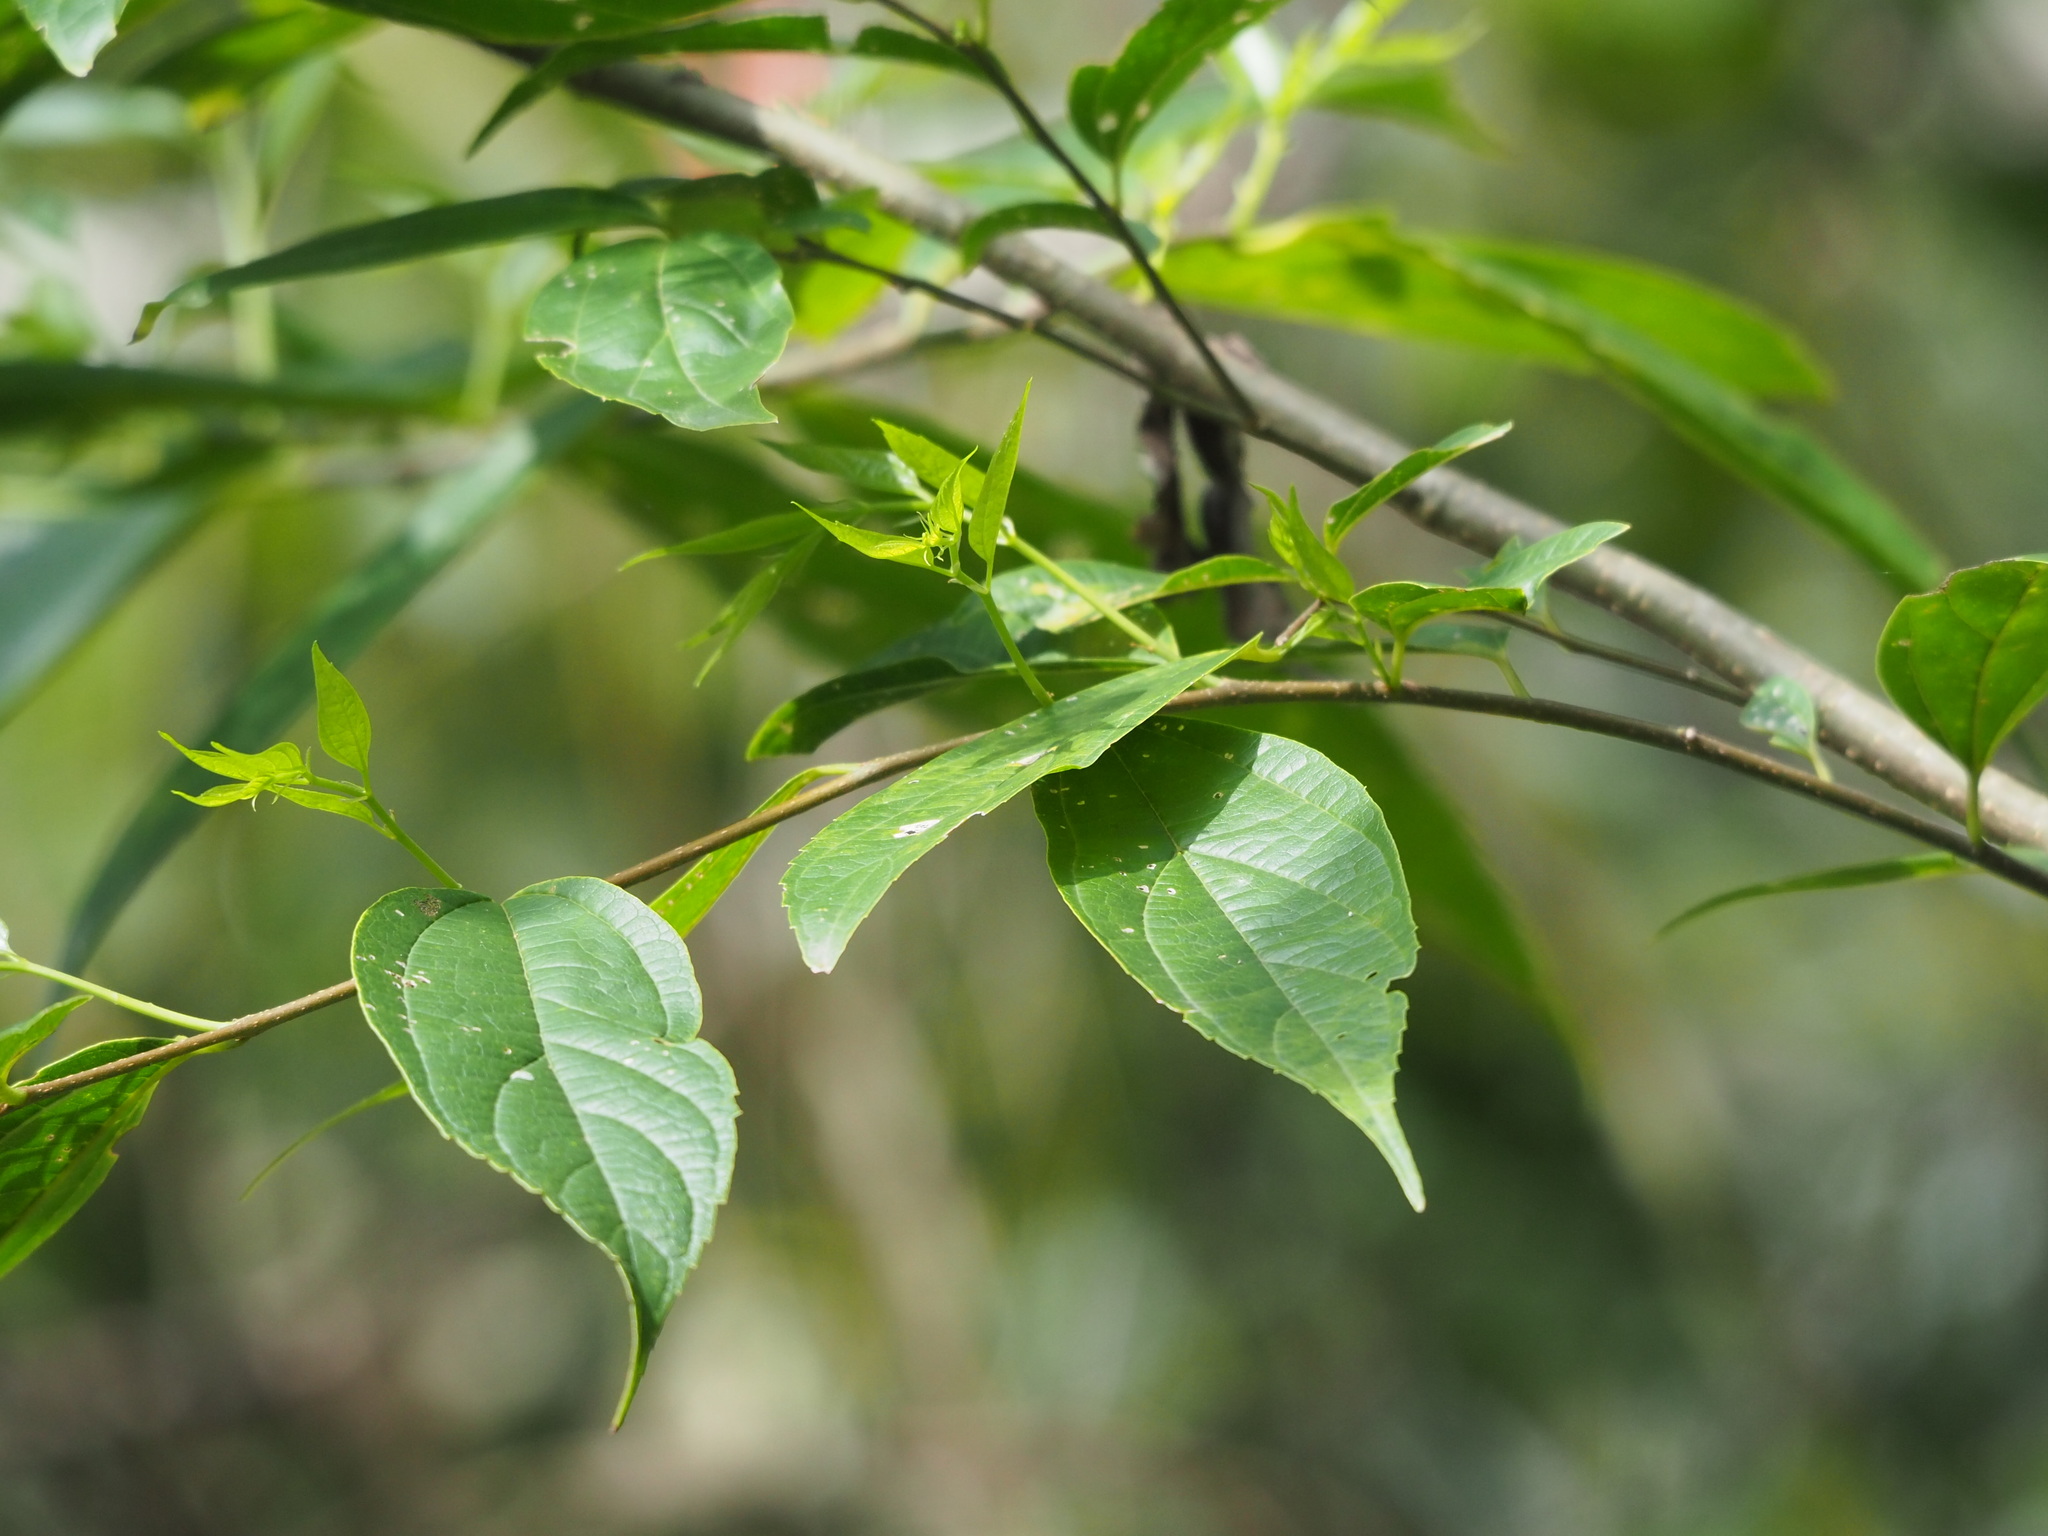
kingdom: Plantae
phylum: Tracheophyta
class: Magnoliopsida
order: Rosales
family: Cannabaceae
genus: Celtis
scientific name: Celtis tetrandra
